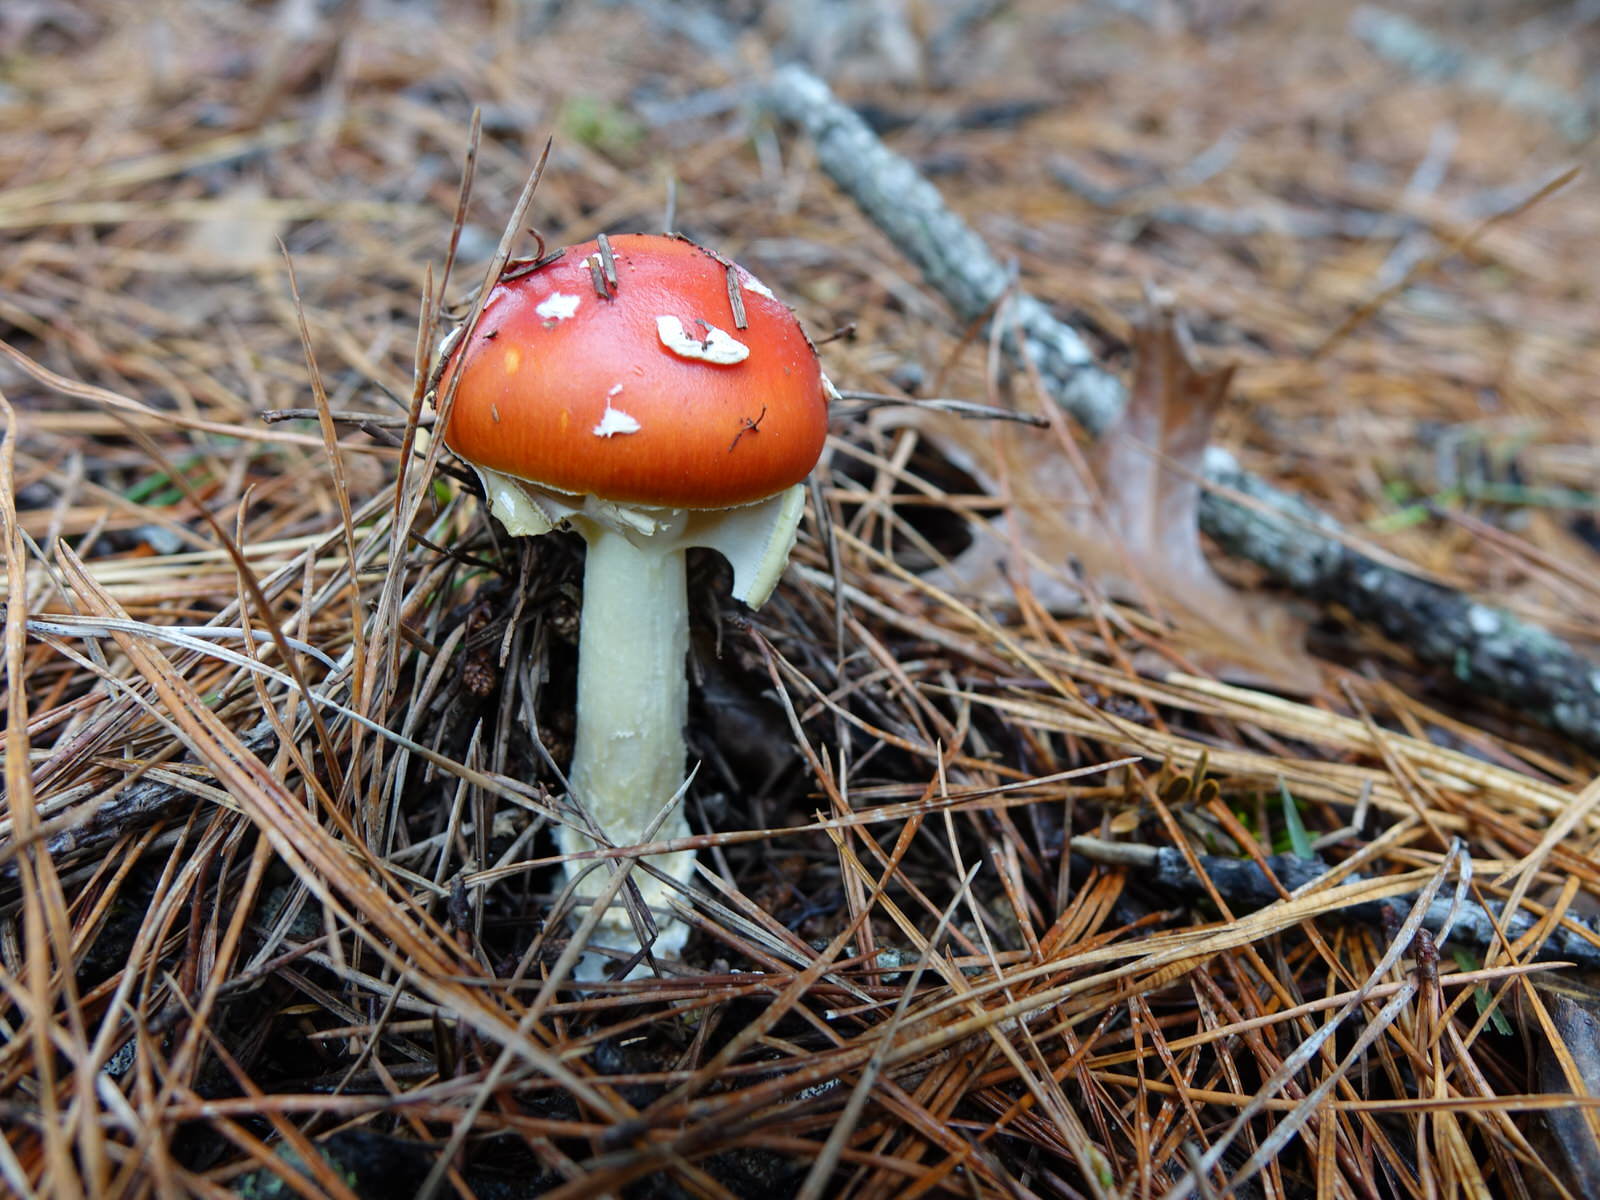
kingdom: Fungi
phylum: Basidiomycota
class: Agaricomycetes
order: Agaricales
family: Amanitaceae
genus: Amanita
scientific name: Amanita muscaria
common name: Fly agaric
